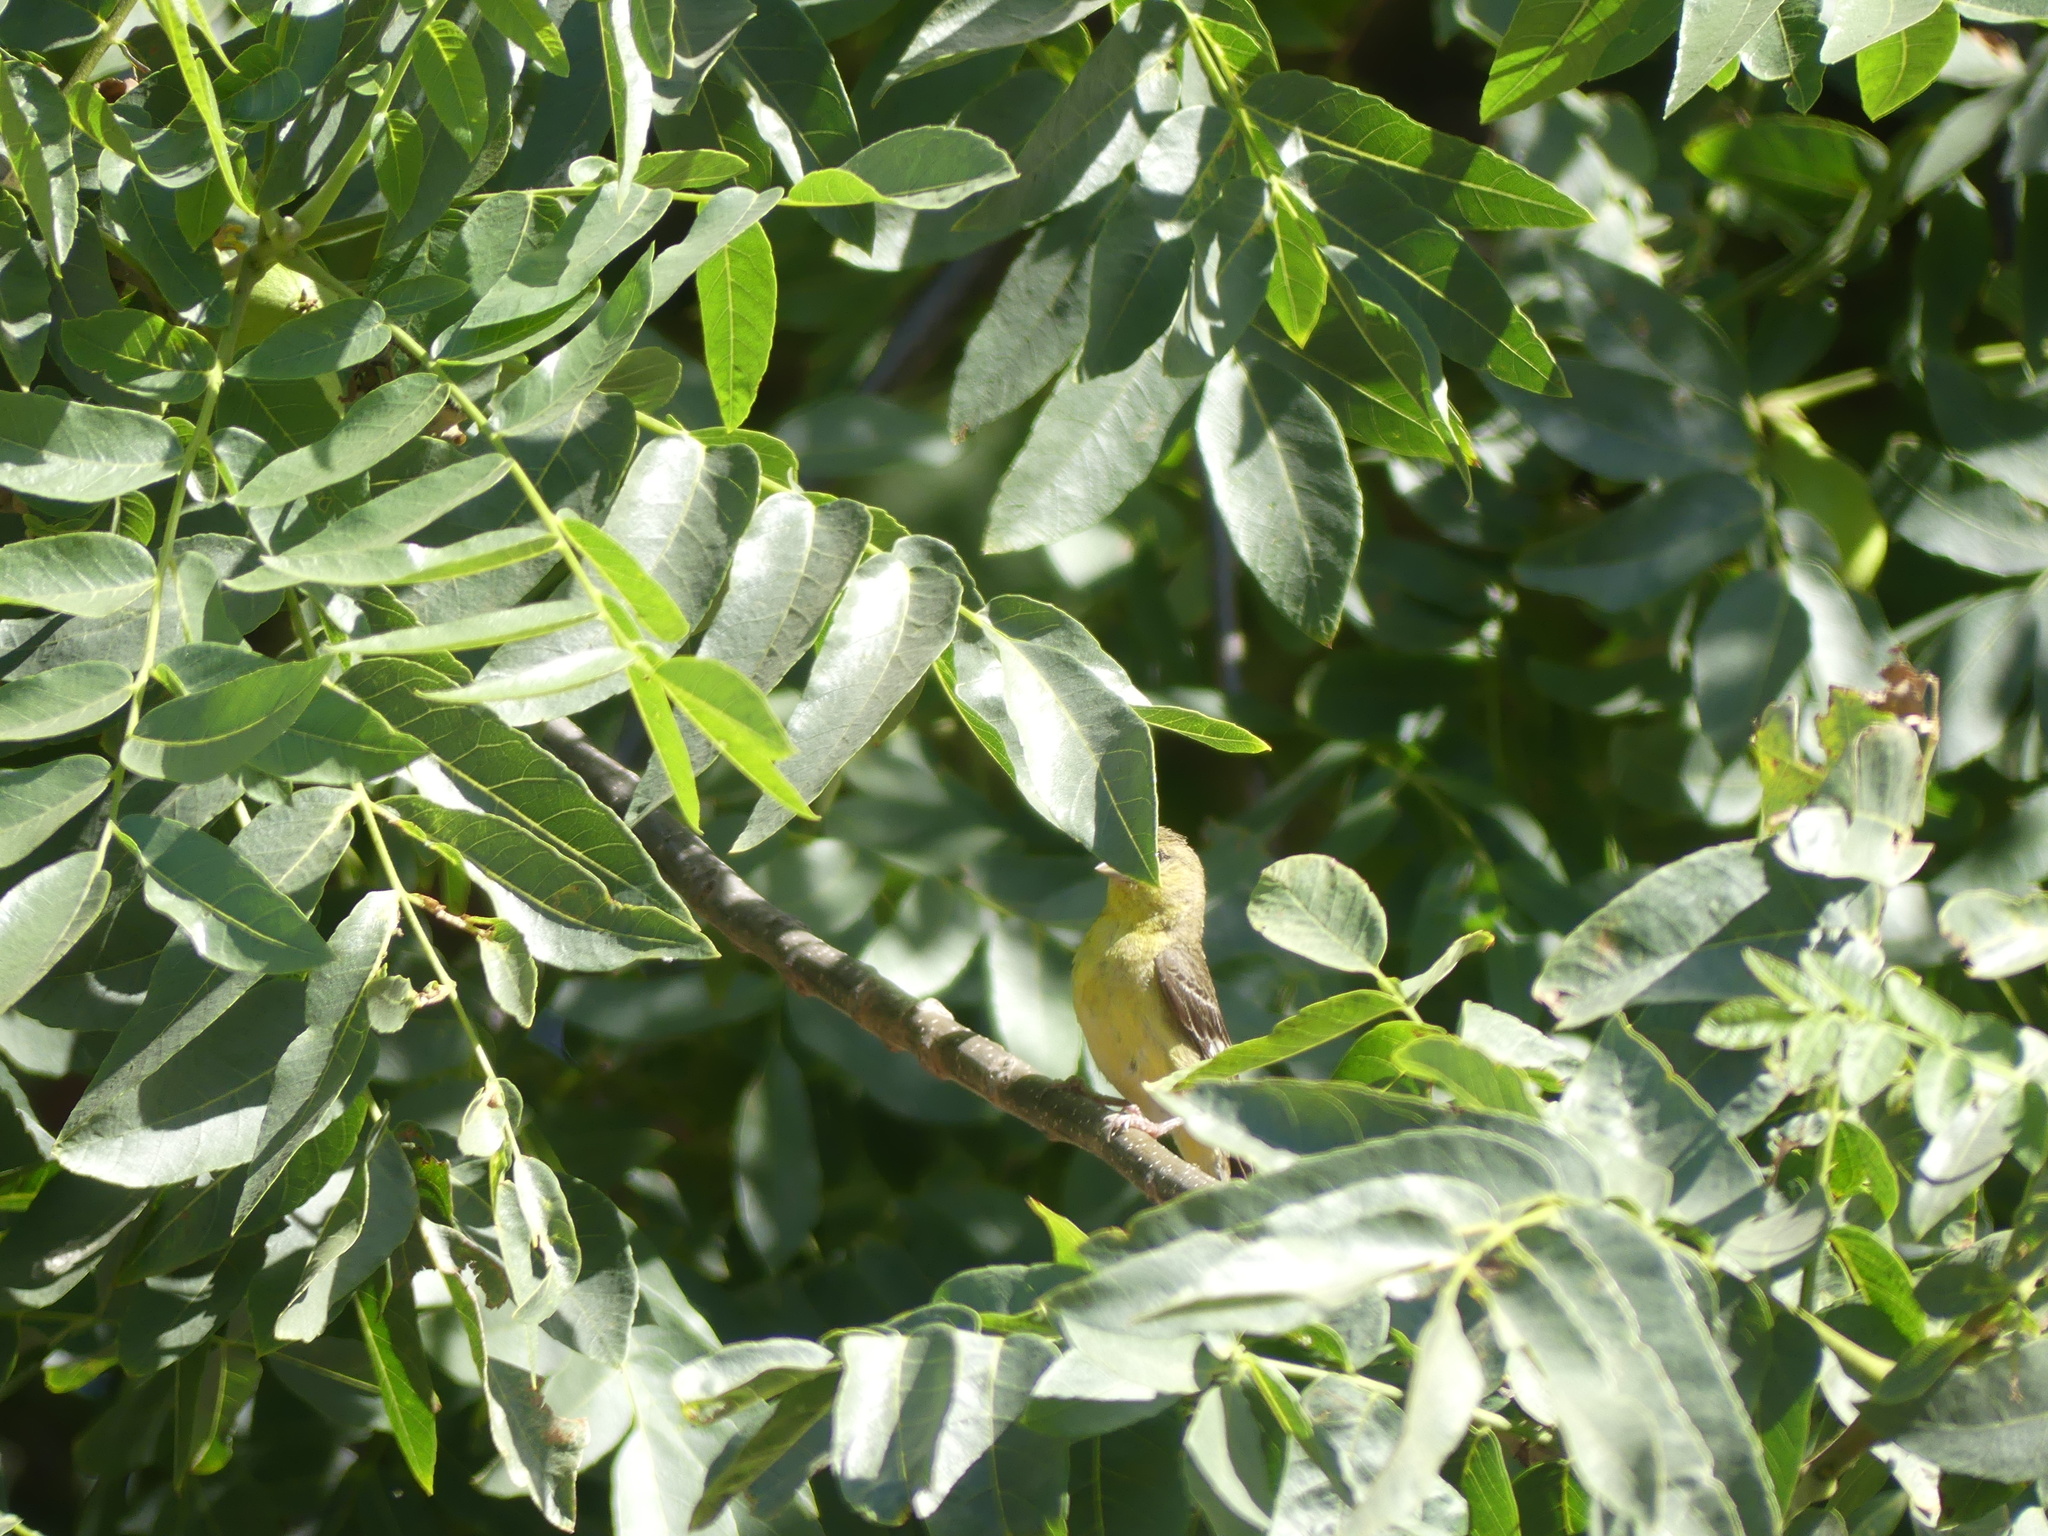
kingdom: Animalia
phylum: Chordata
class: Aves
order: Passeriformes
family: Fringillidae
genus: Spinus
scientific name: Spinus psaltria
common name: Lesser goldfinch
